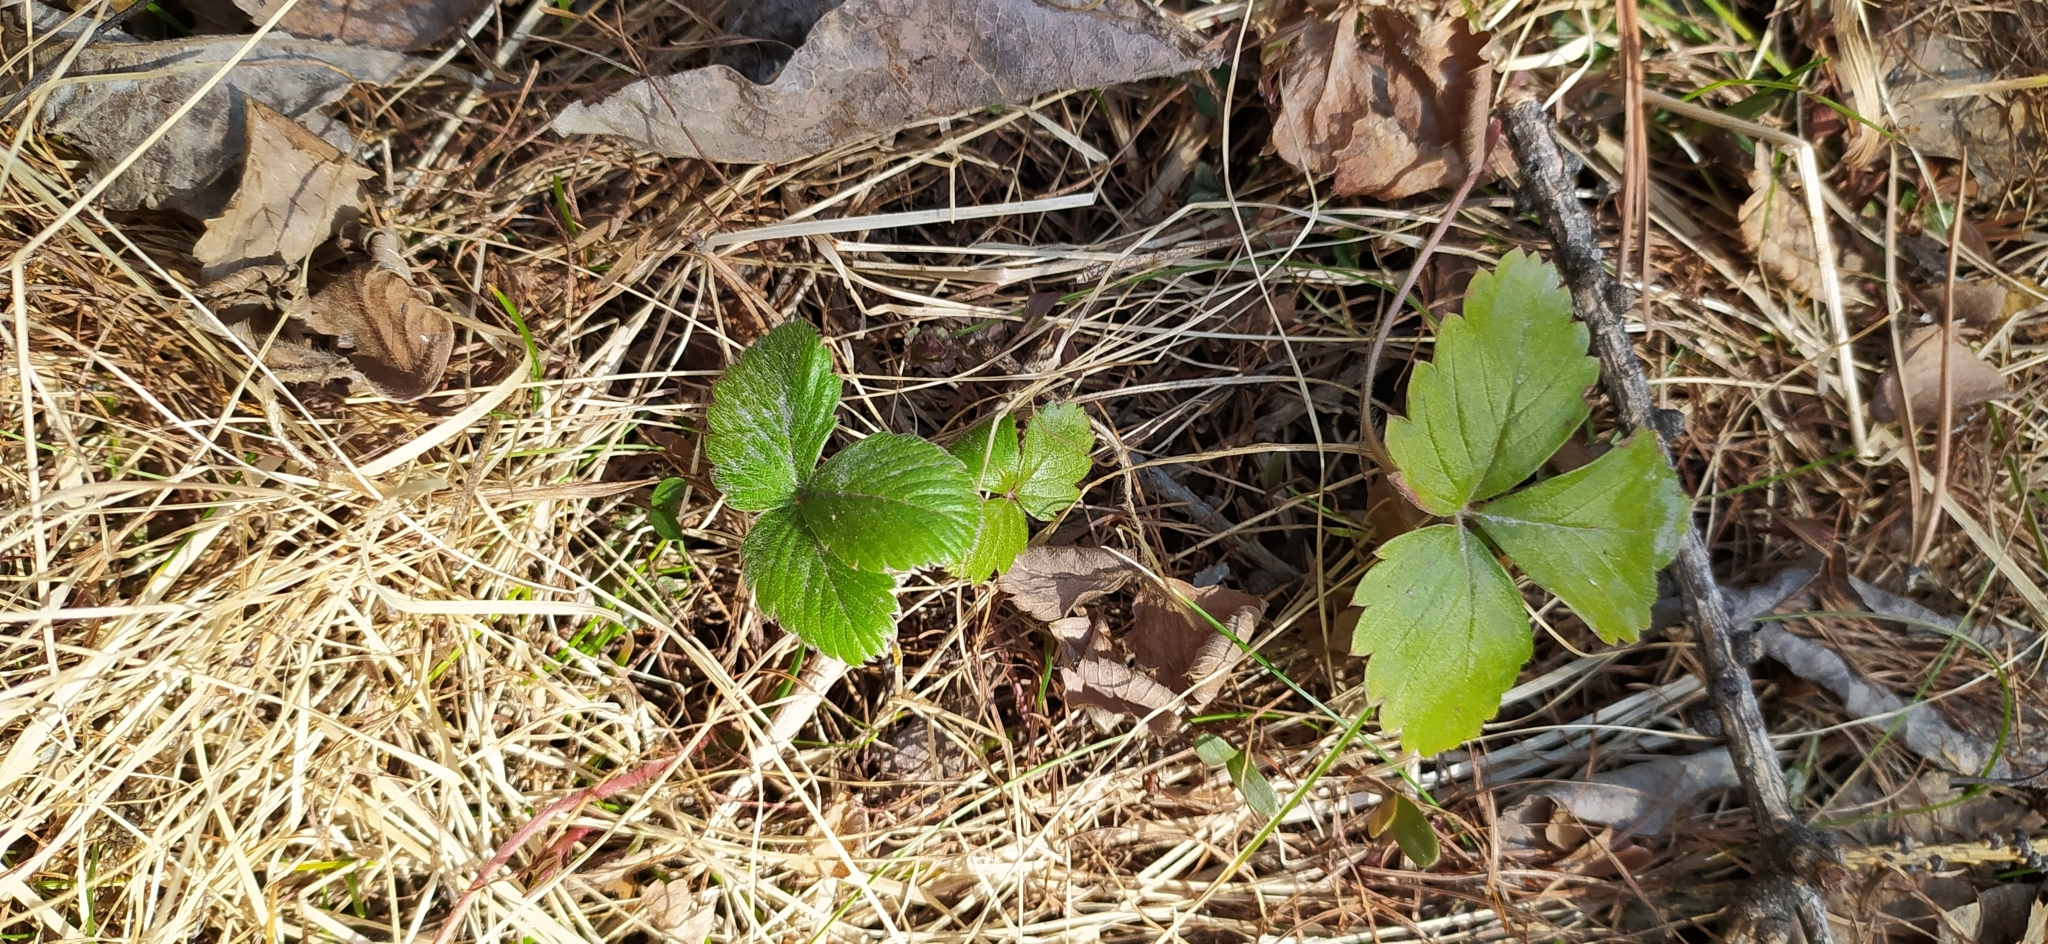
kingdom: Plantae
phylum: Tracheophyta
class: Magnoliopsida
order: Rosales
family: Rosaceae
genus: Fragaria
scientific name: Fragaria vesca
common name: Wild strawberry
